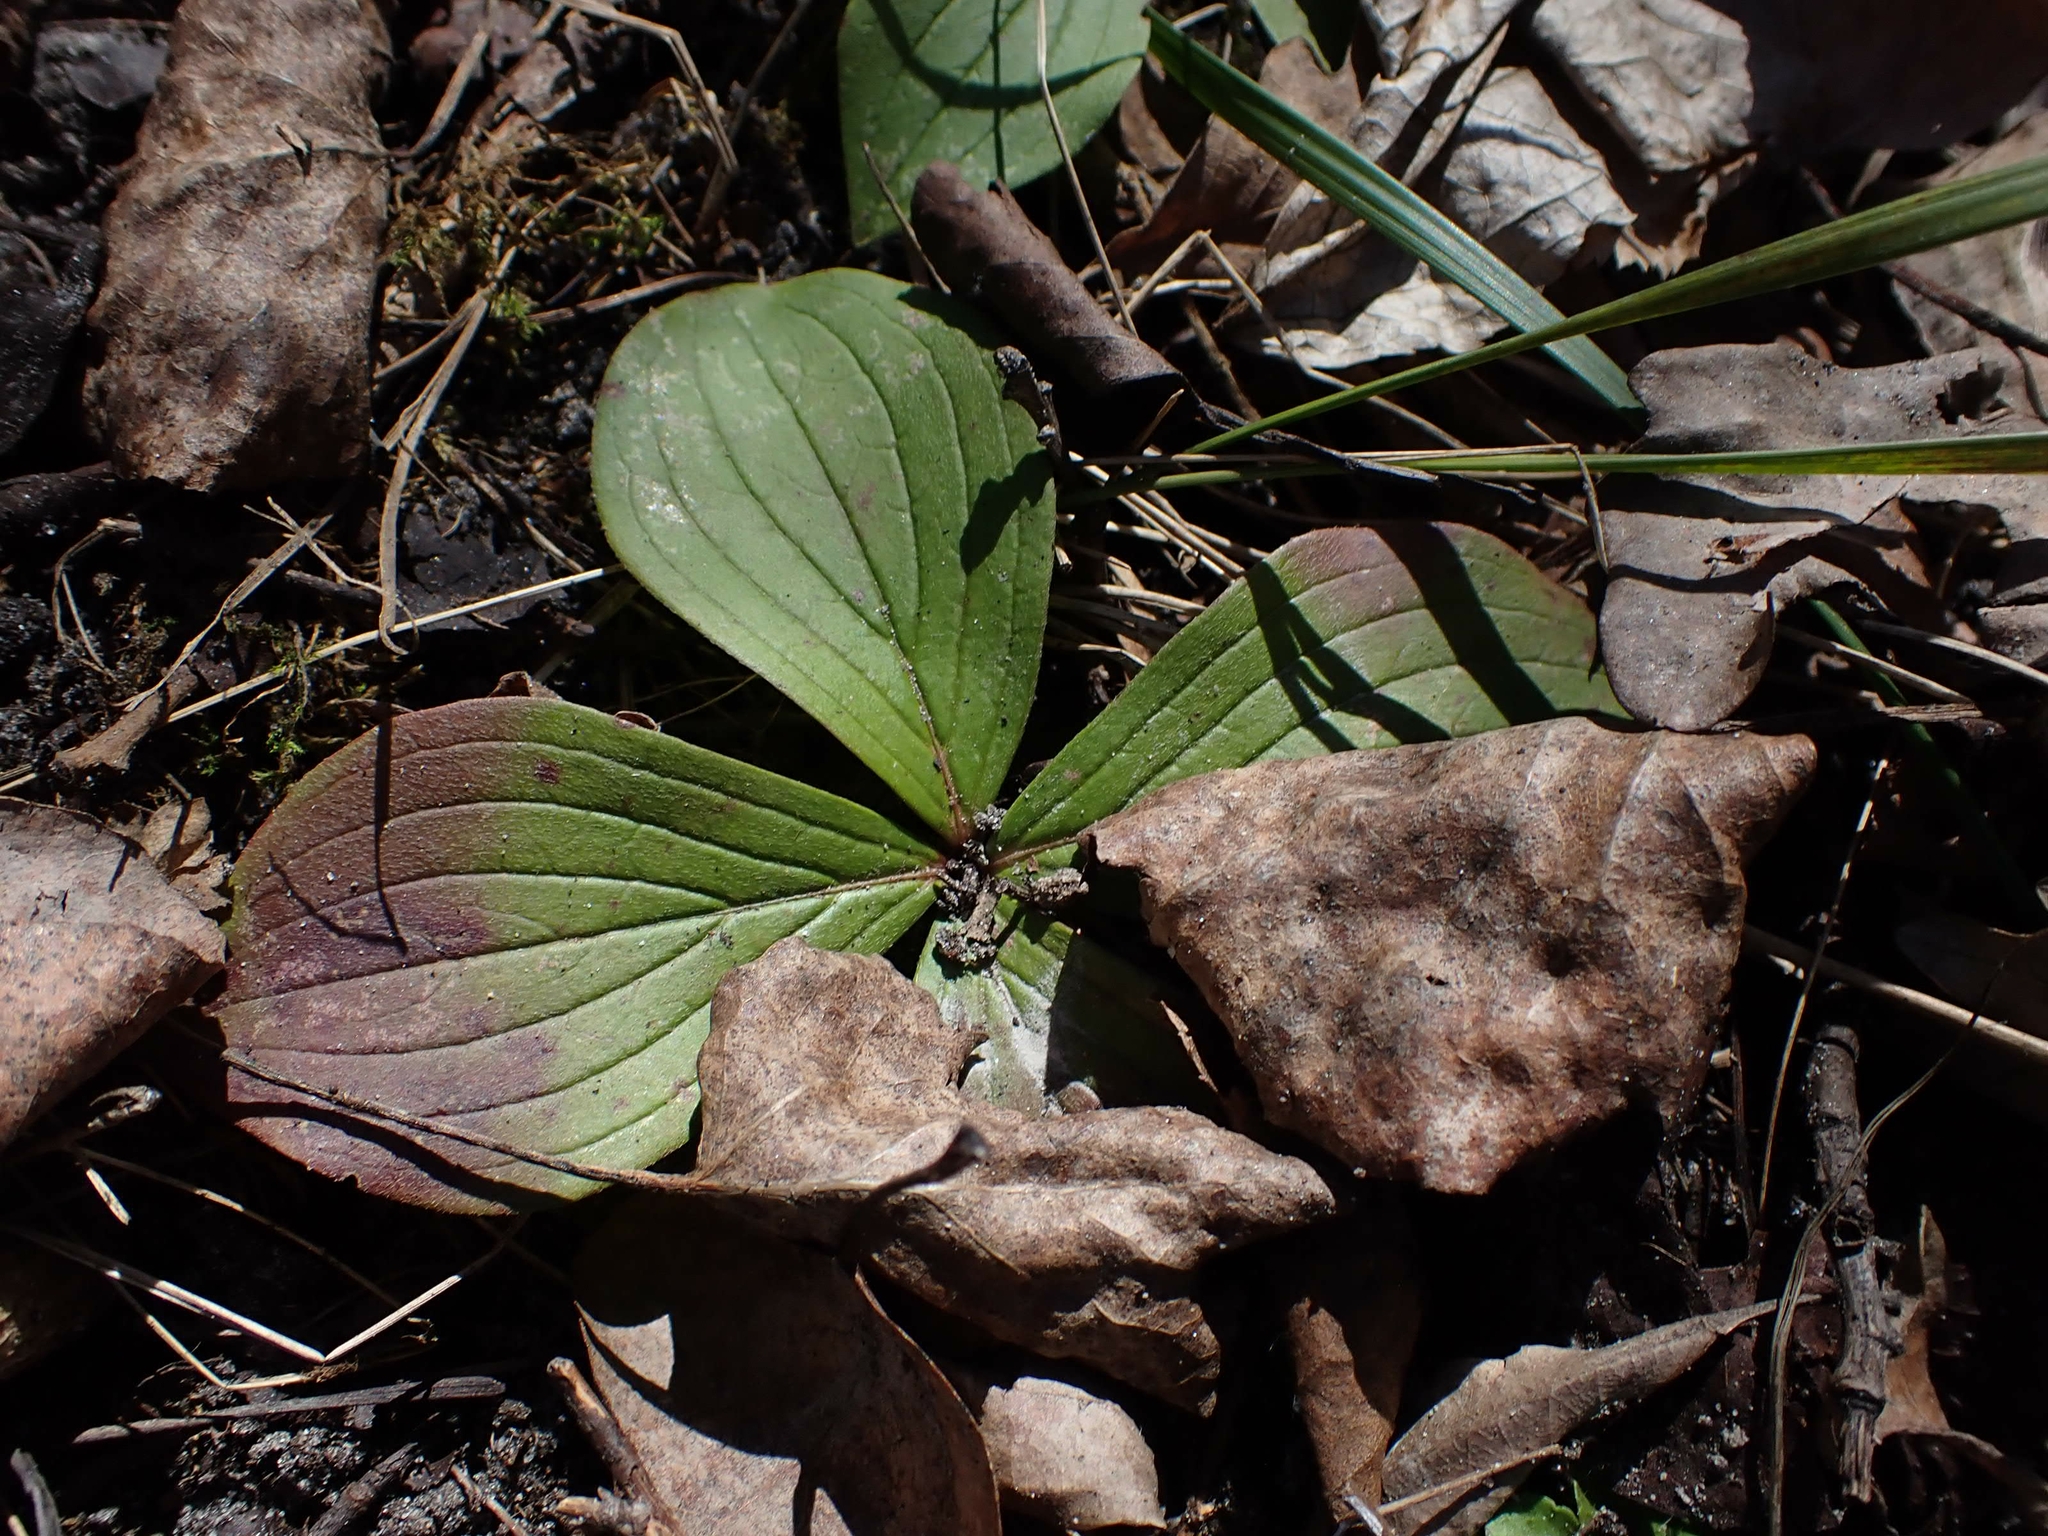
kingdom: Plantae
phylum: Tracheophyta
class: Magnoliopsida
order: Cornales
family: Cornaceae
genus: Cornus
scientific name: Cornus canadensis
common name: Creeping dogwood
